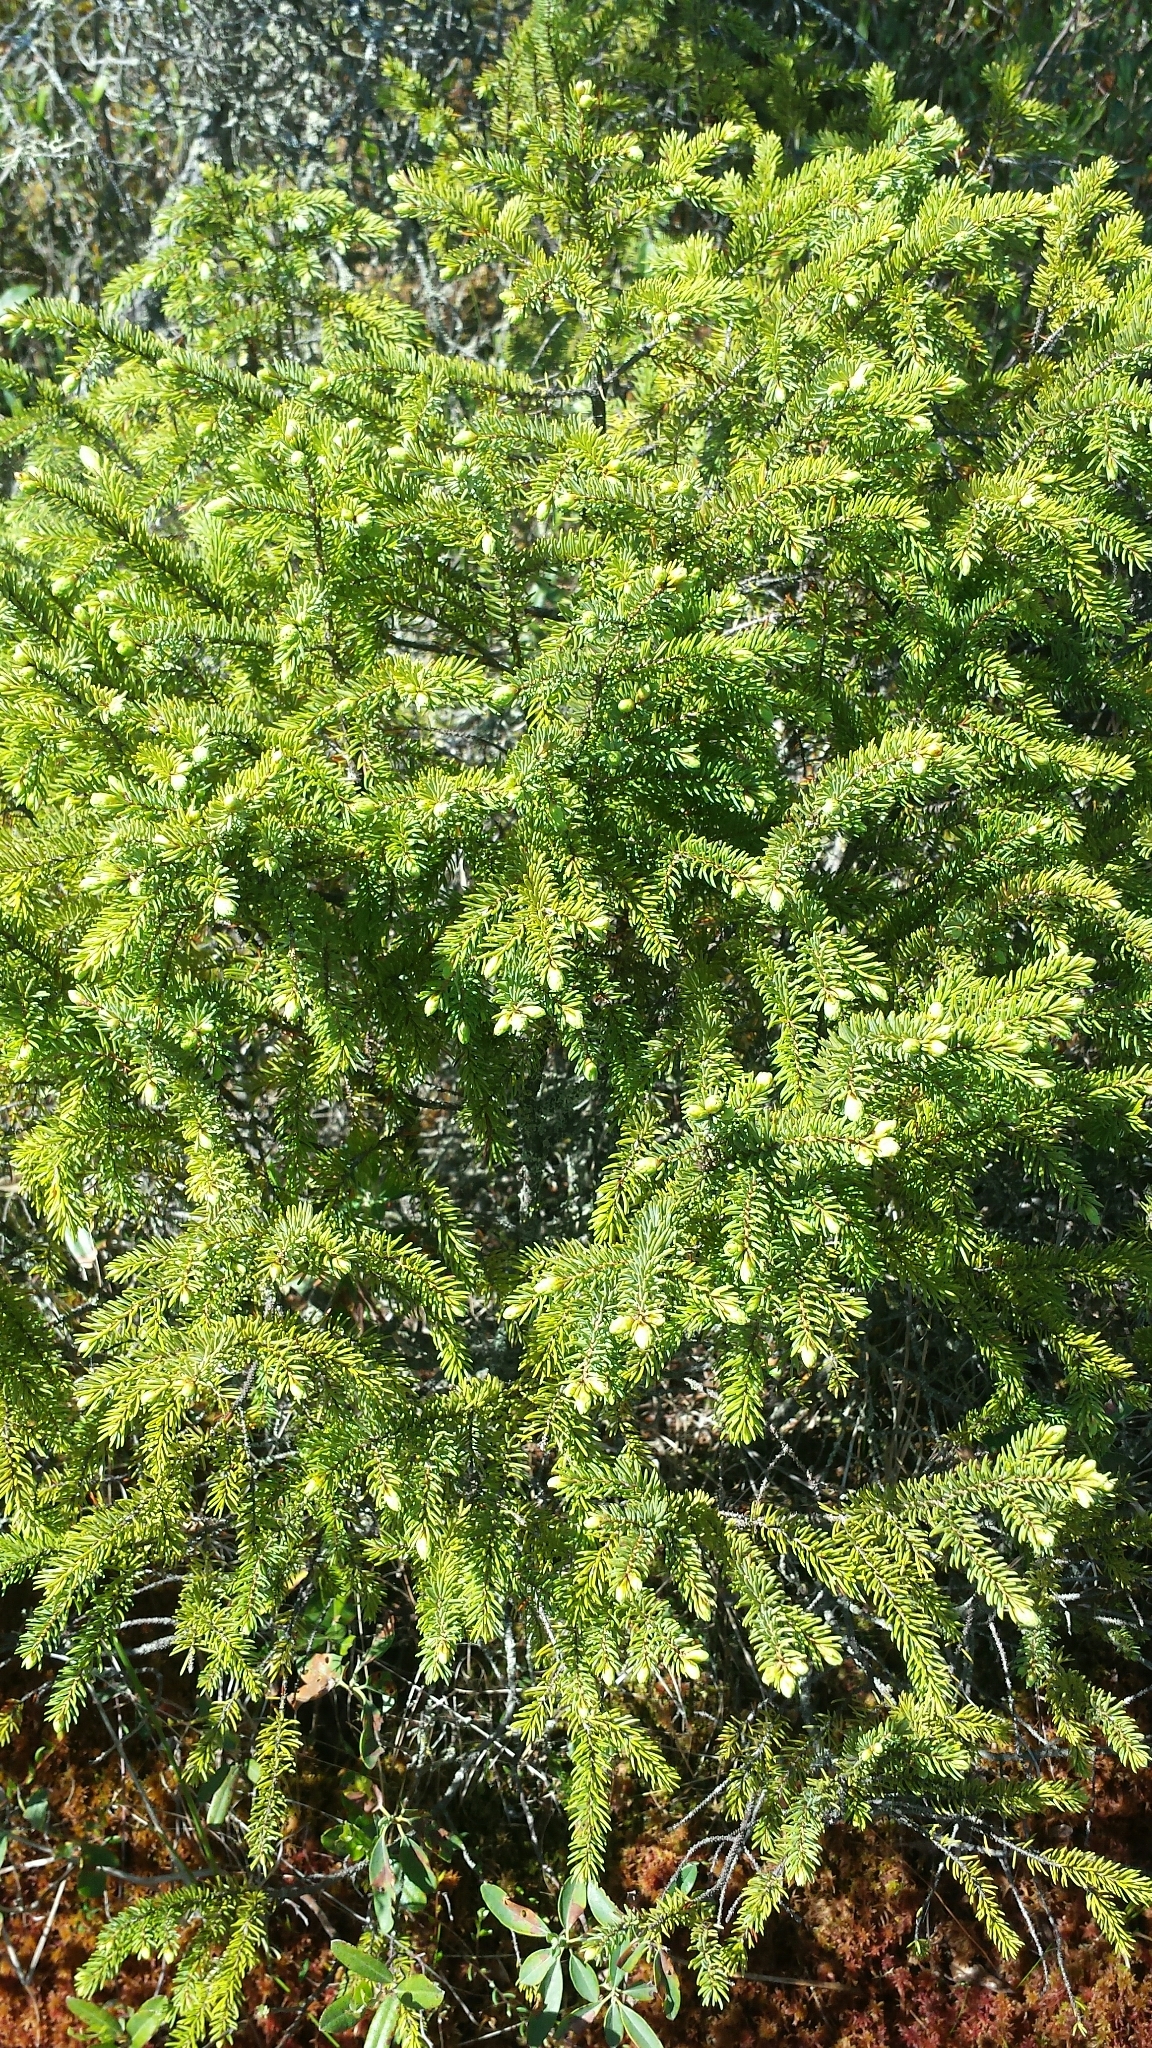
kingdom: Plantae
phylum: Tracheophyta
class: Pinopsida
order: Pinales
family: Pinaceae
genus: Picea
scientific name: Picea mariana
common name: Black spruce
